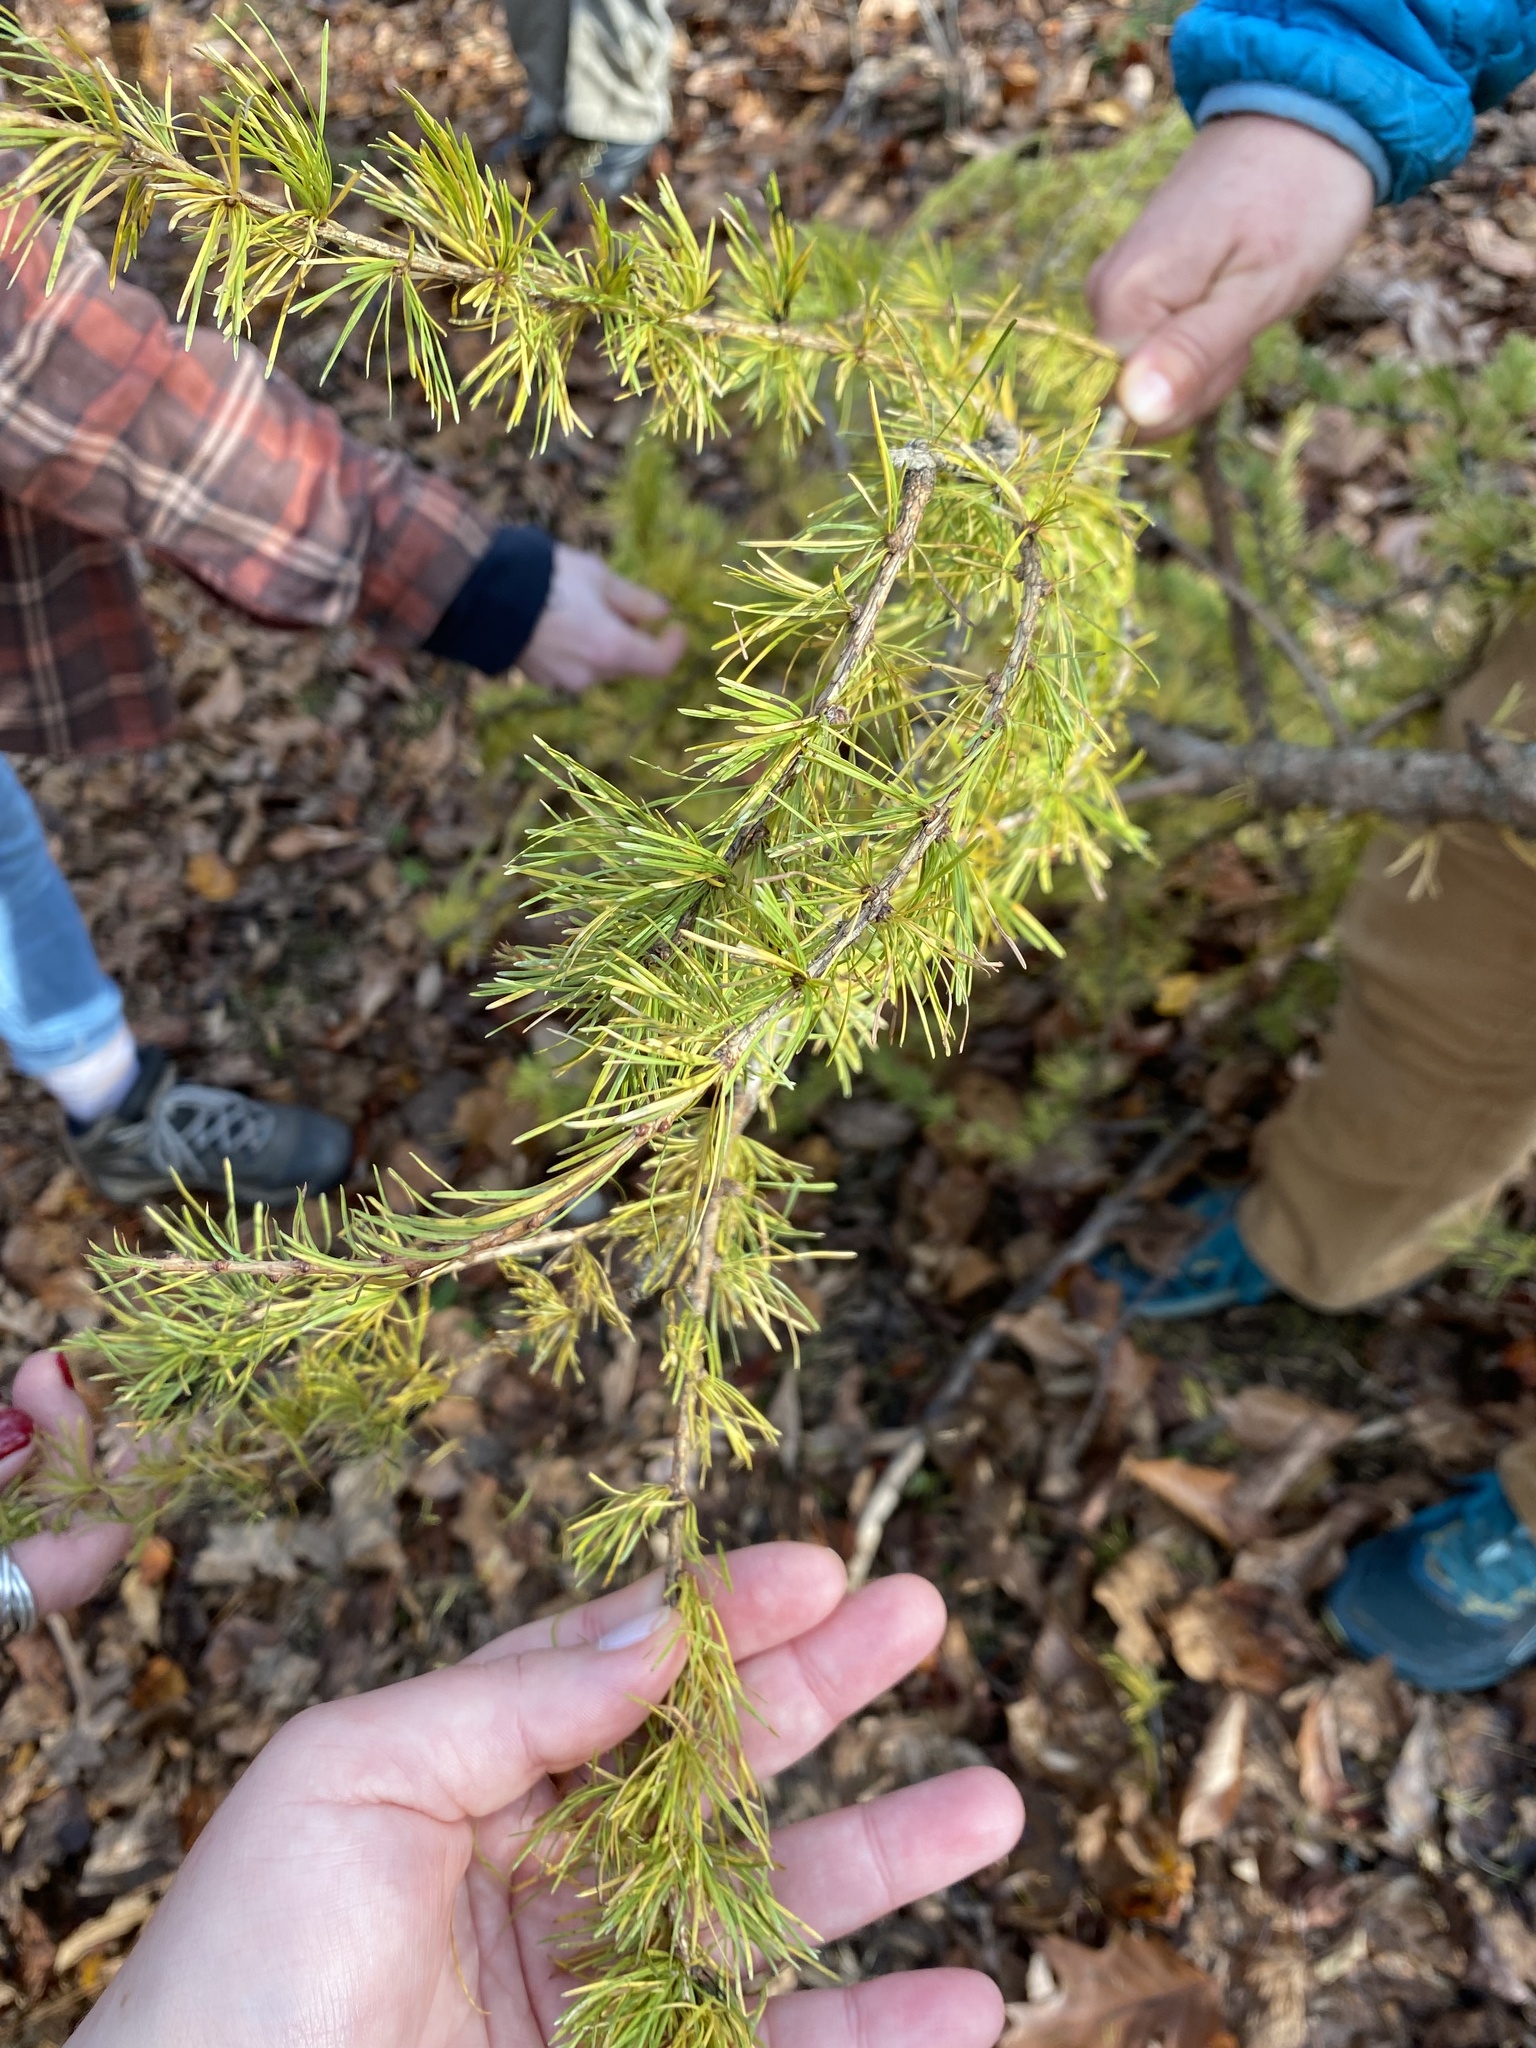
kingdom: Plantae
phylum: Tracheophyta
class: Pinopsida
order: Pinales
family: Pinaceae
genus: Larix
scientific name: Larix laricina
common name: American larch
